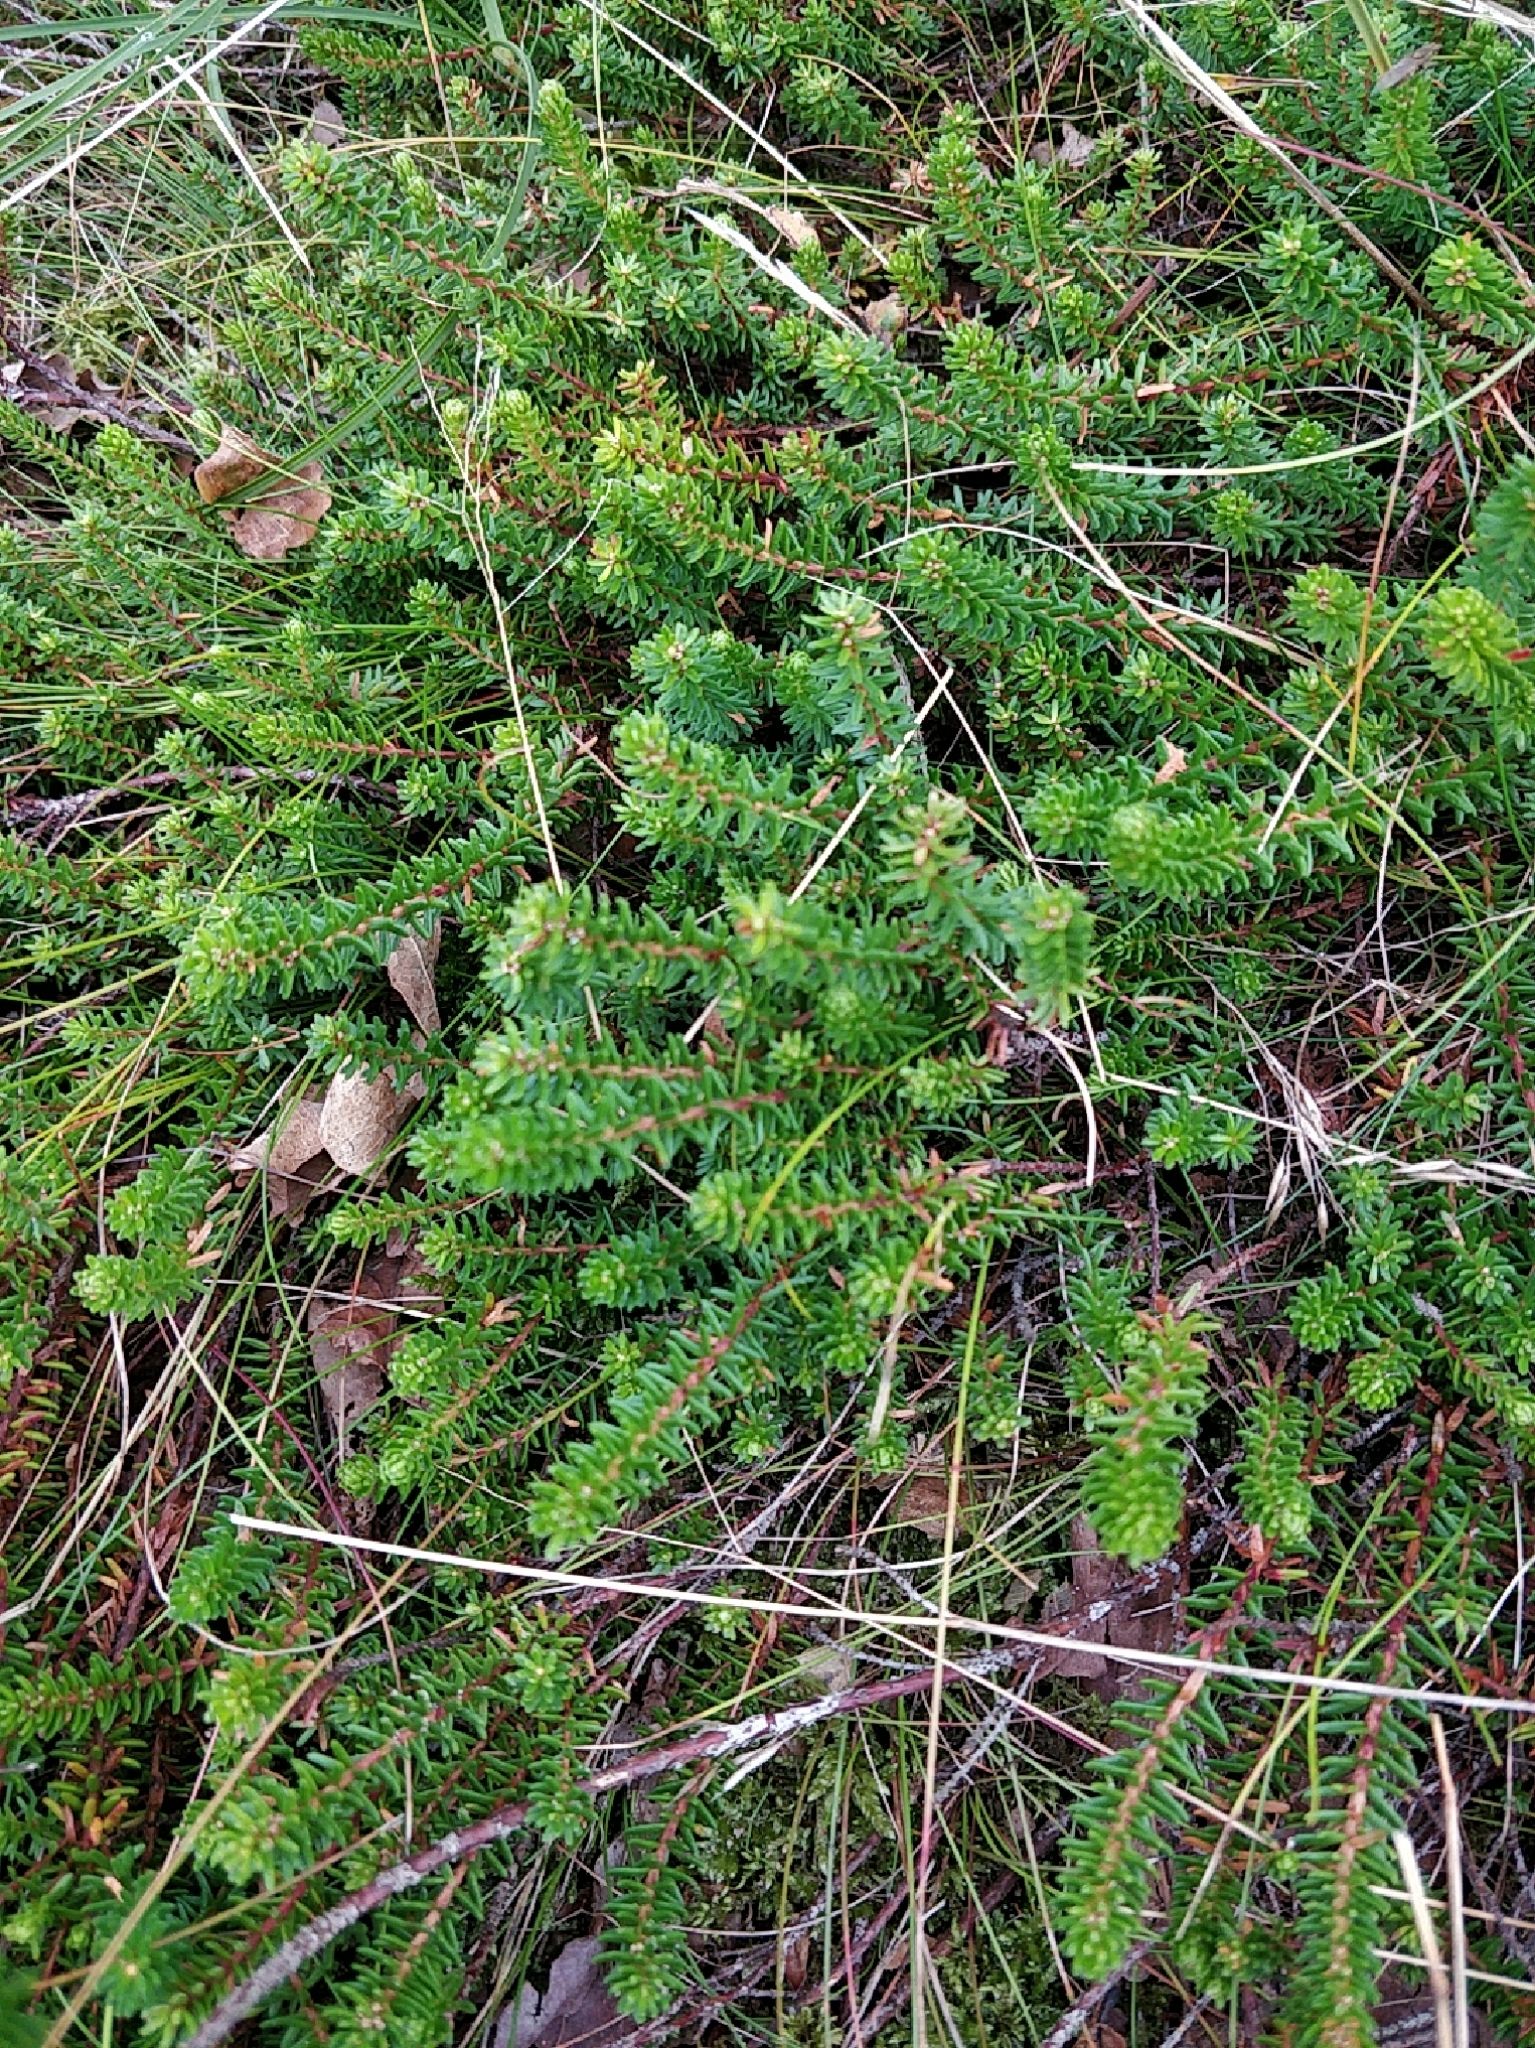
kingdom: Plantae
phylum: Tracheophyta
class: Magnoliopsida
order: Ericales
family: Ericaceae
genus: Empetrum
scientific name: Empetrum nigrum
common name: Black crowberry
